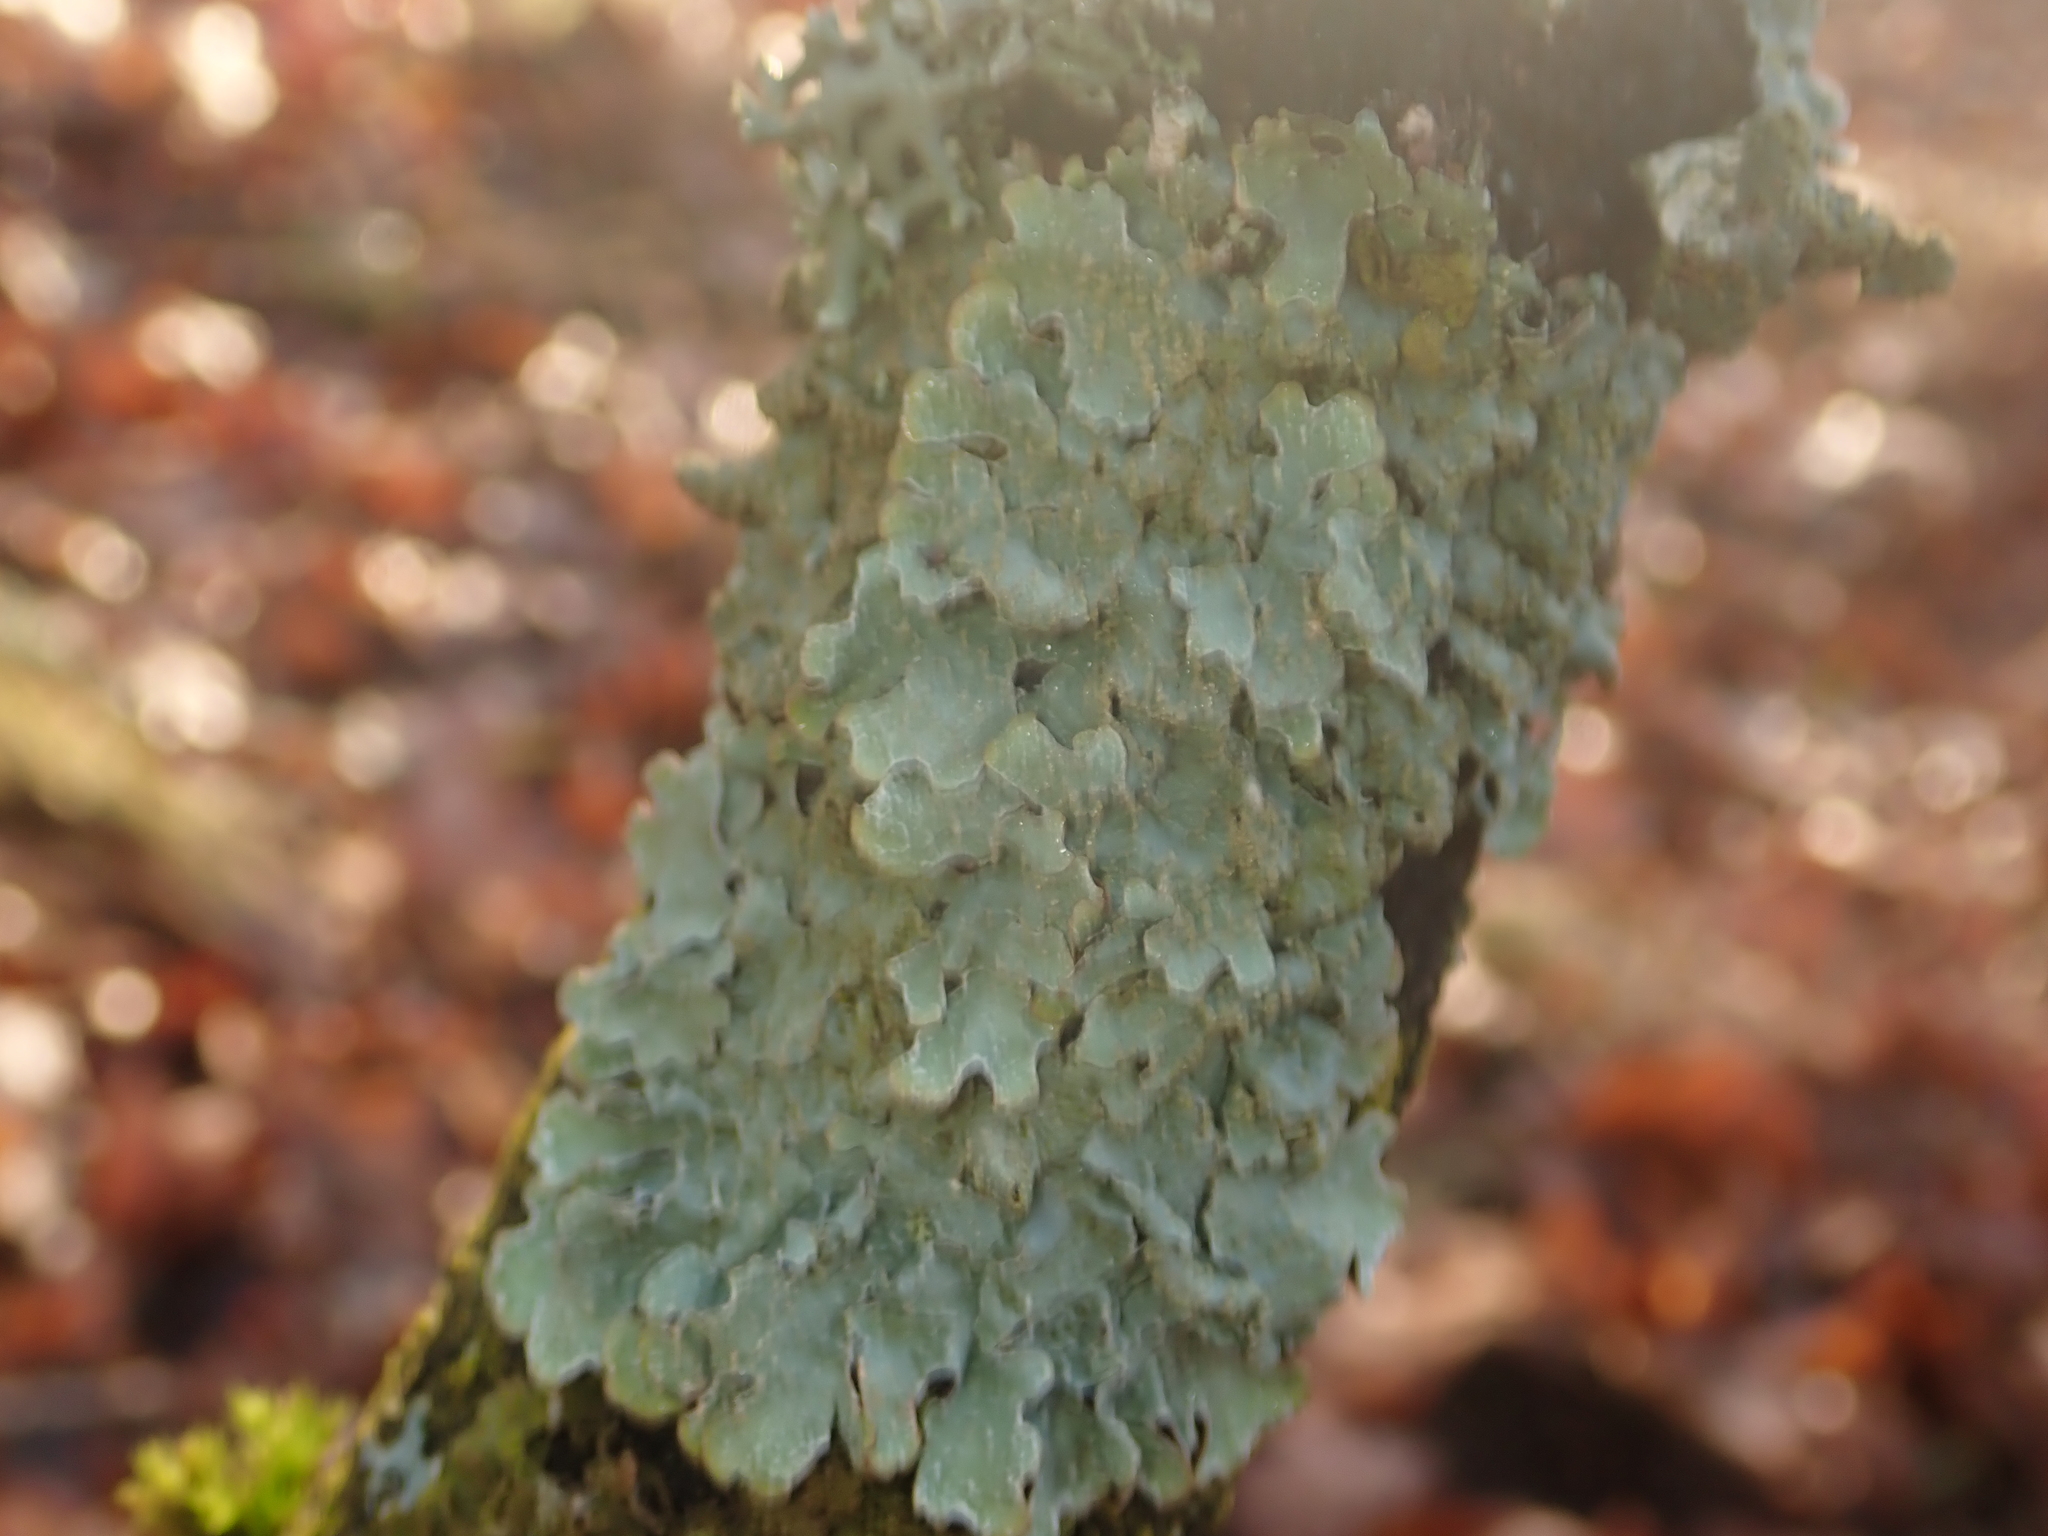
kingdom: Fungi
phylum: Ascomycota
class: Lecanoromycetes
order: Lecanorales
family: Parmeliaceae
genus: Parmelia
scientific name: Parmelia sulcata
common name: Netted shield lichen
